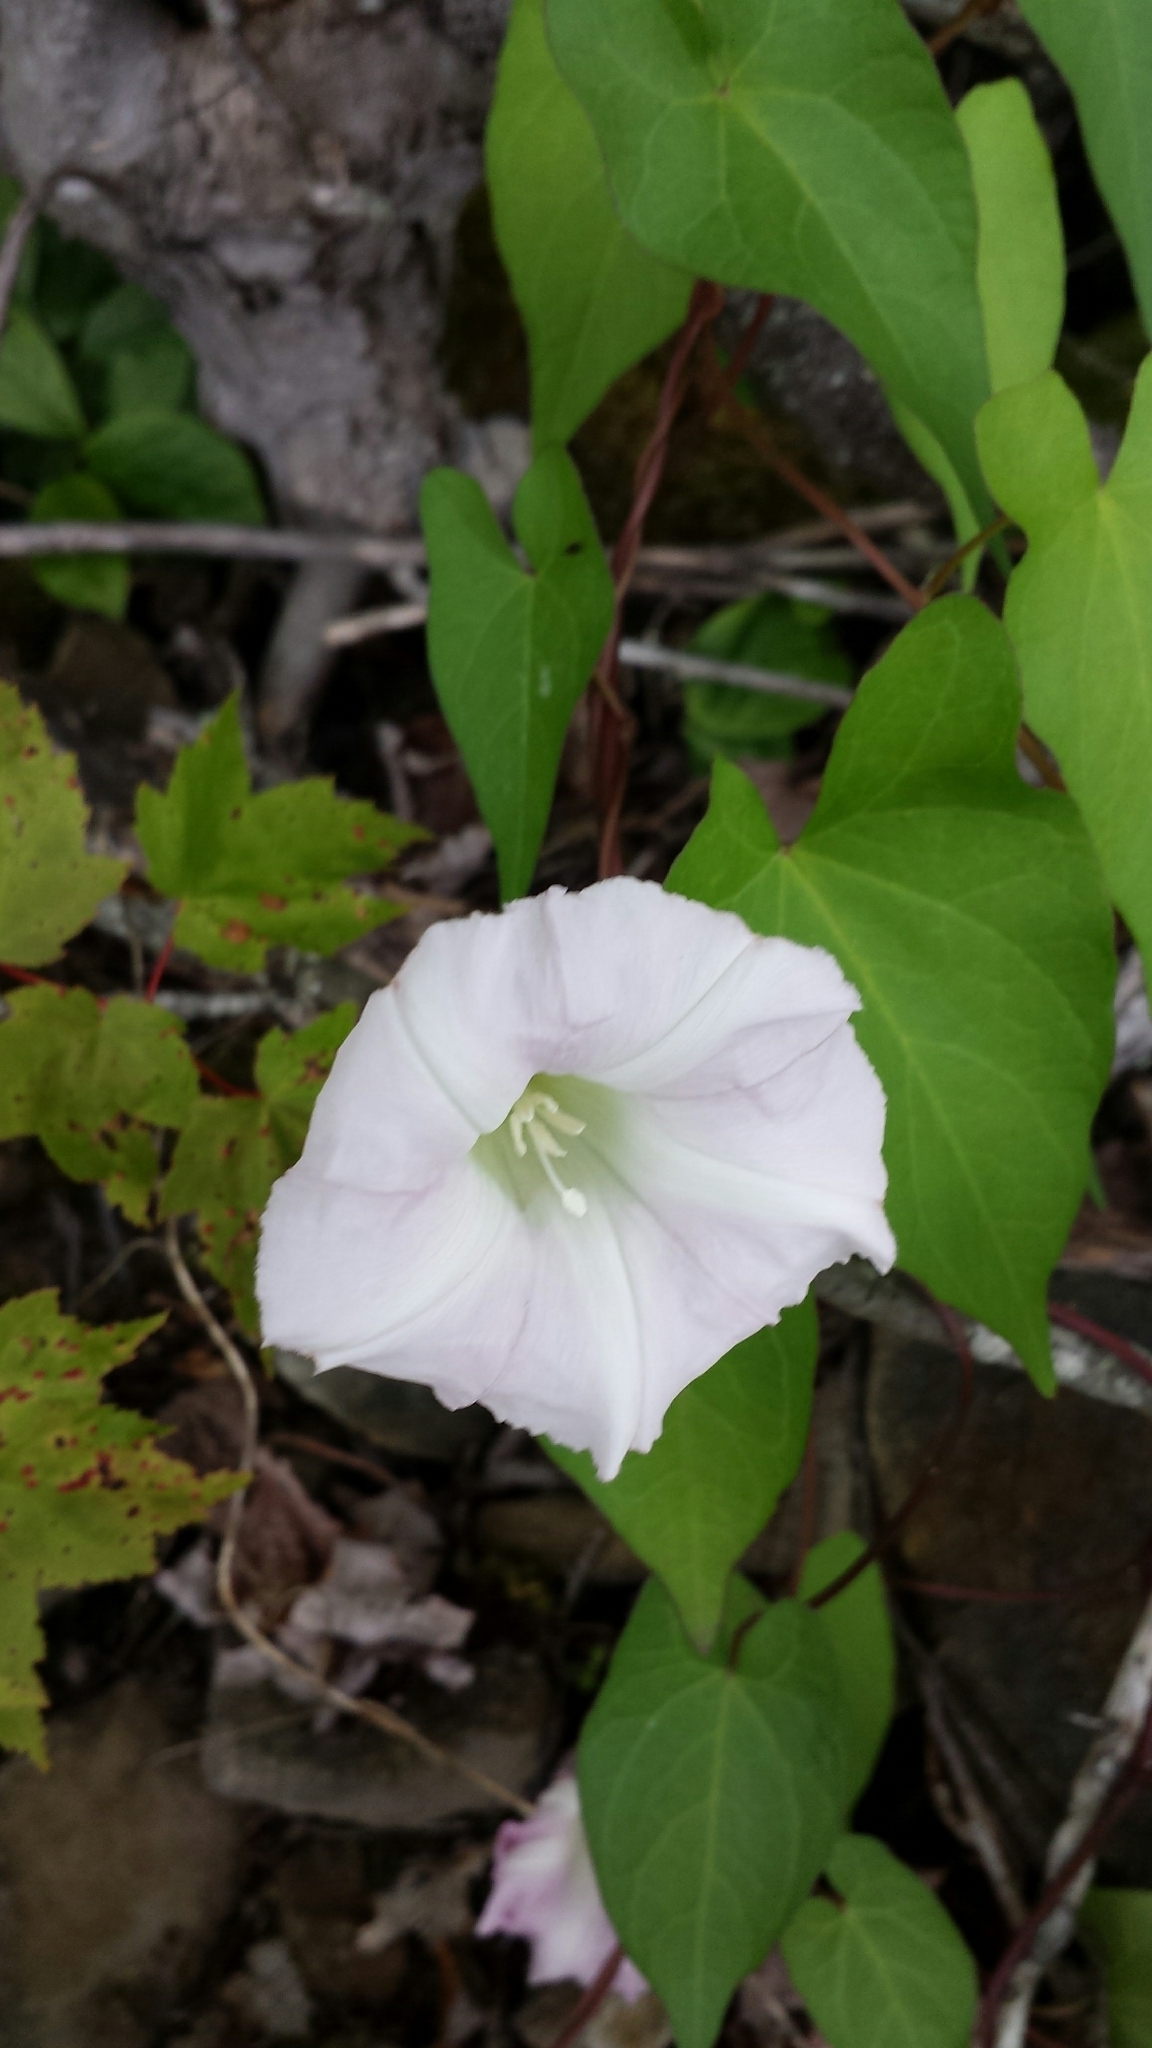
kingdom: Plantae
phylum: Tracheophyta
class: Magnoliopsida
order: Solanales
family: Convolvulaceae
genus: Calystegia
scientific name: Calystegia sepium
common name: Hedge bindweed
